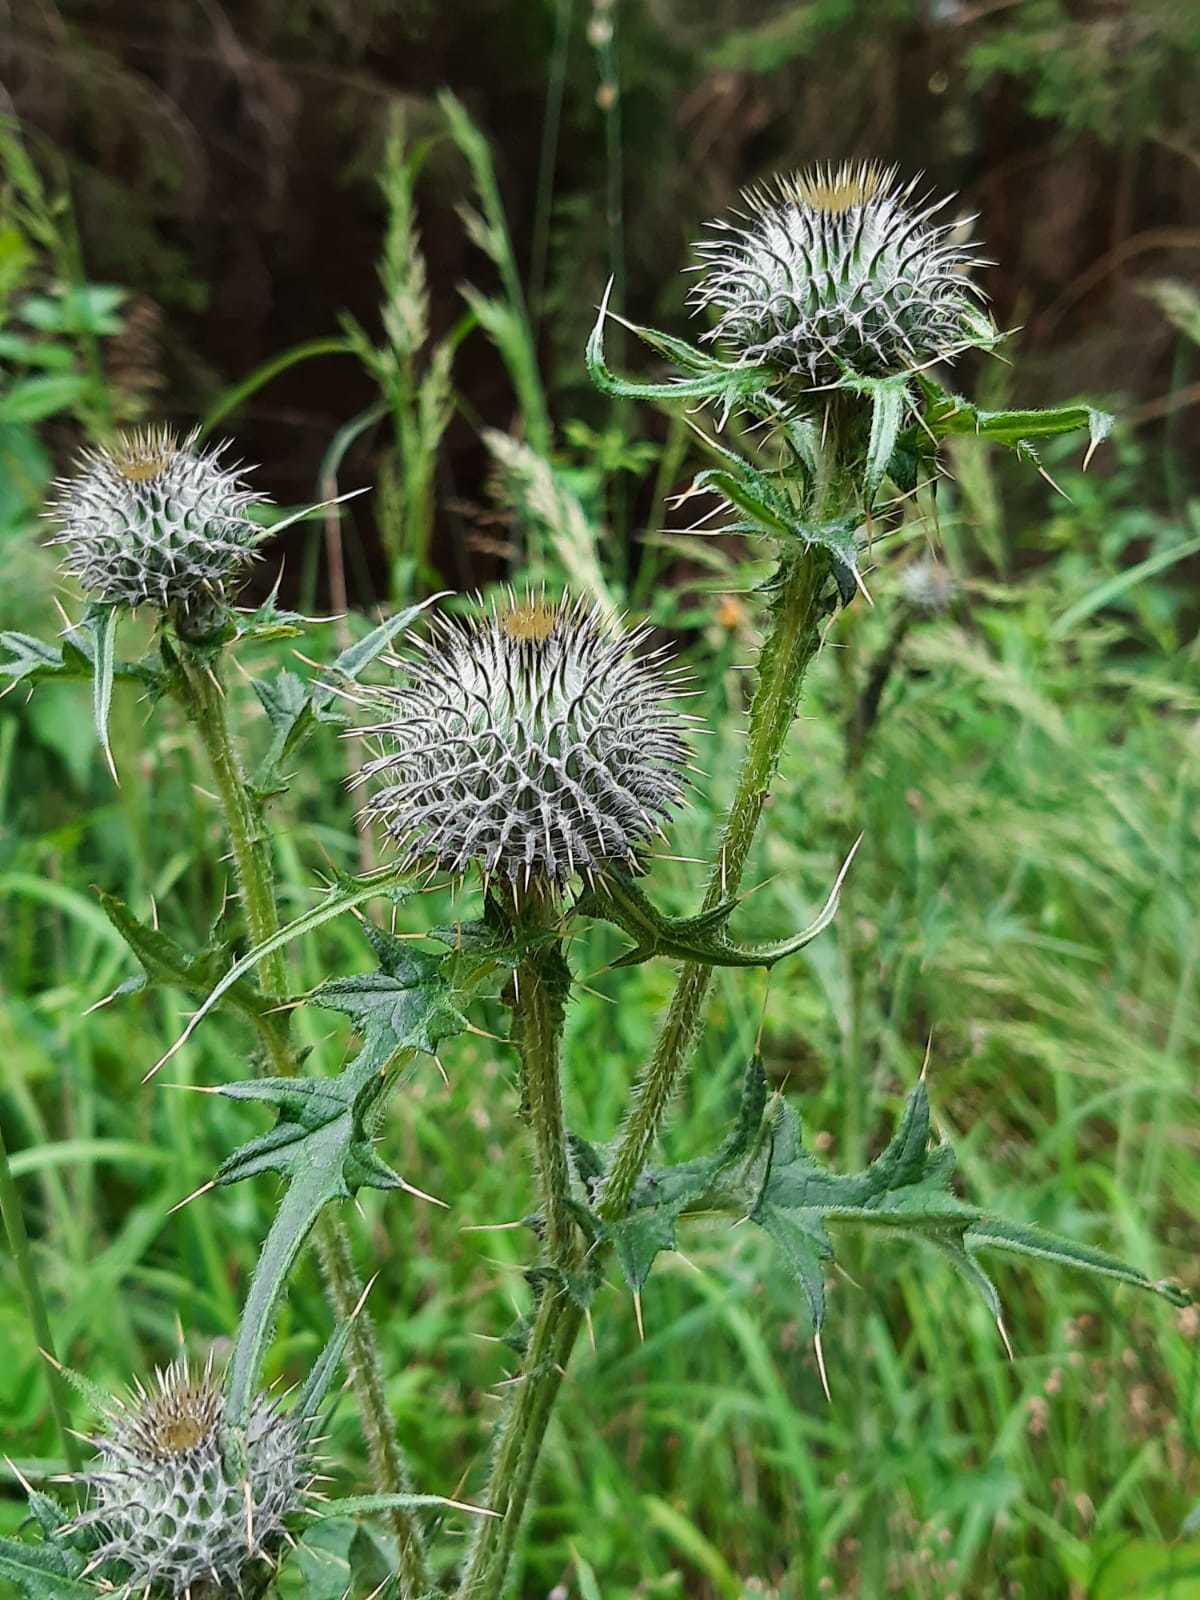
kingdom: Plantae
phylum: Tracheophyta
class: Magnoliopsida
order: Asterales
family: Asteraceae
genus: Cirsium
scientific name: Cirsium vulgare
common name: Bull thistle
